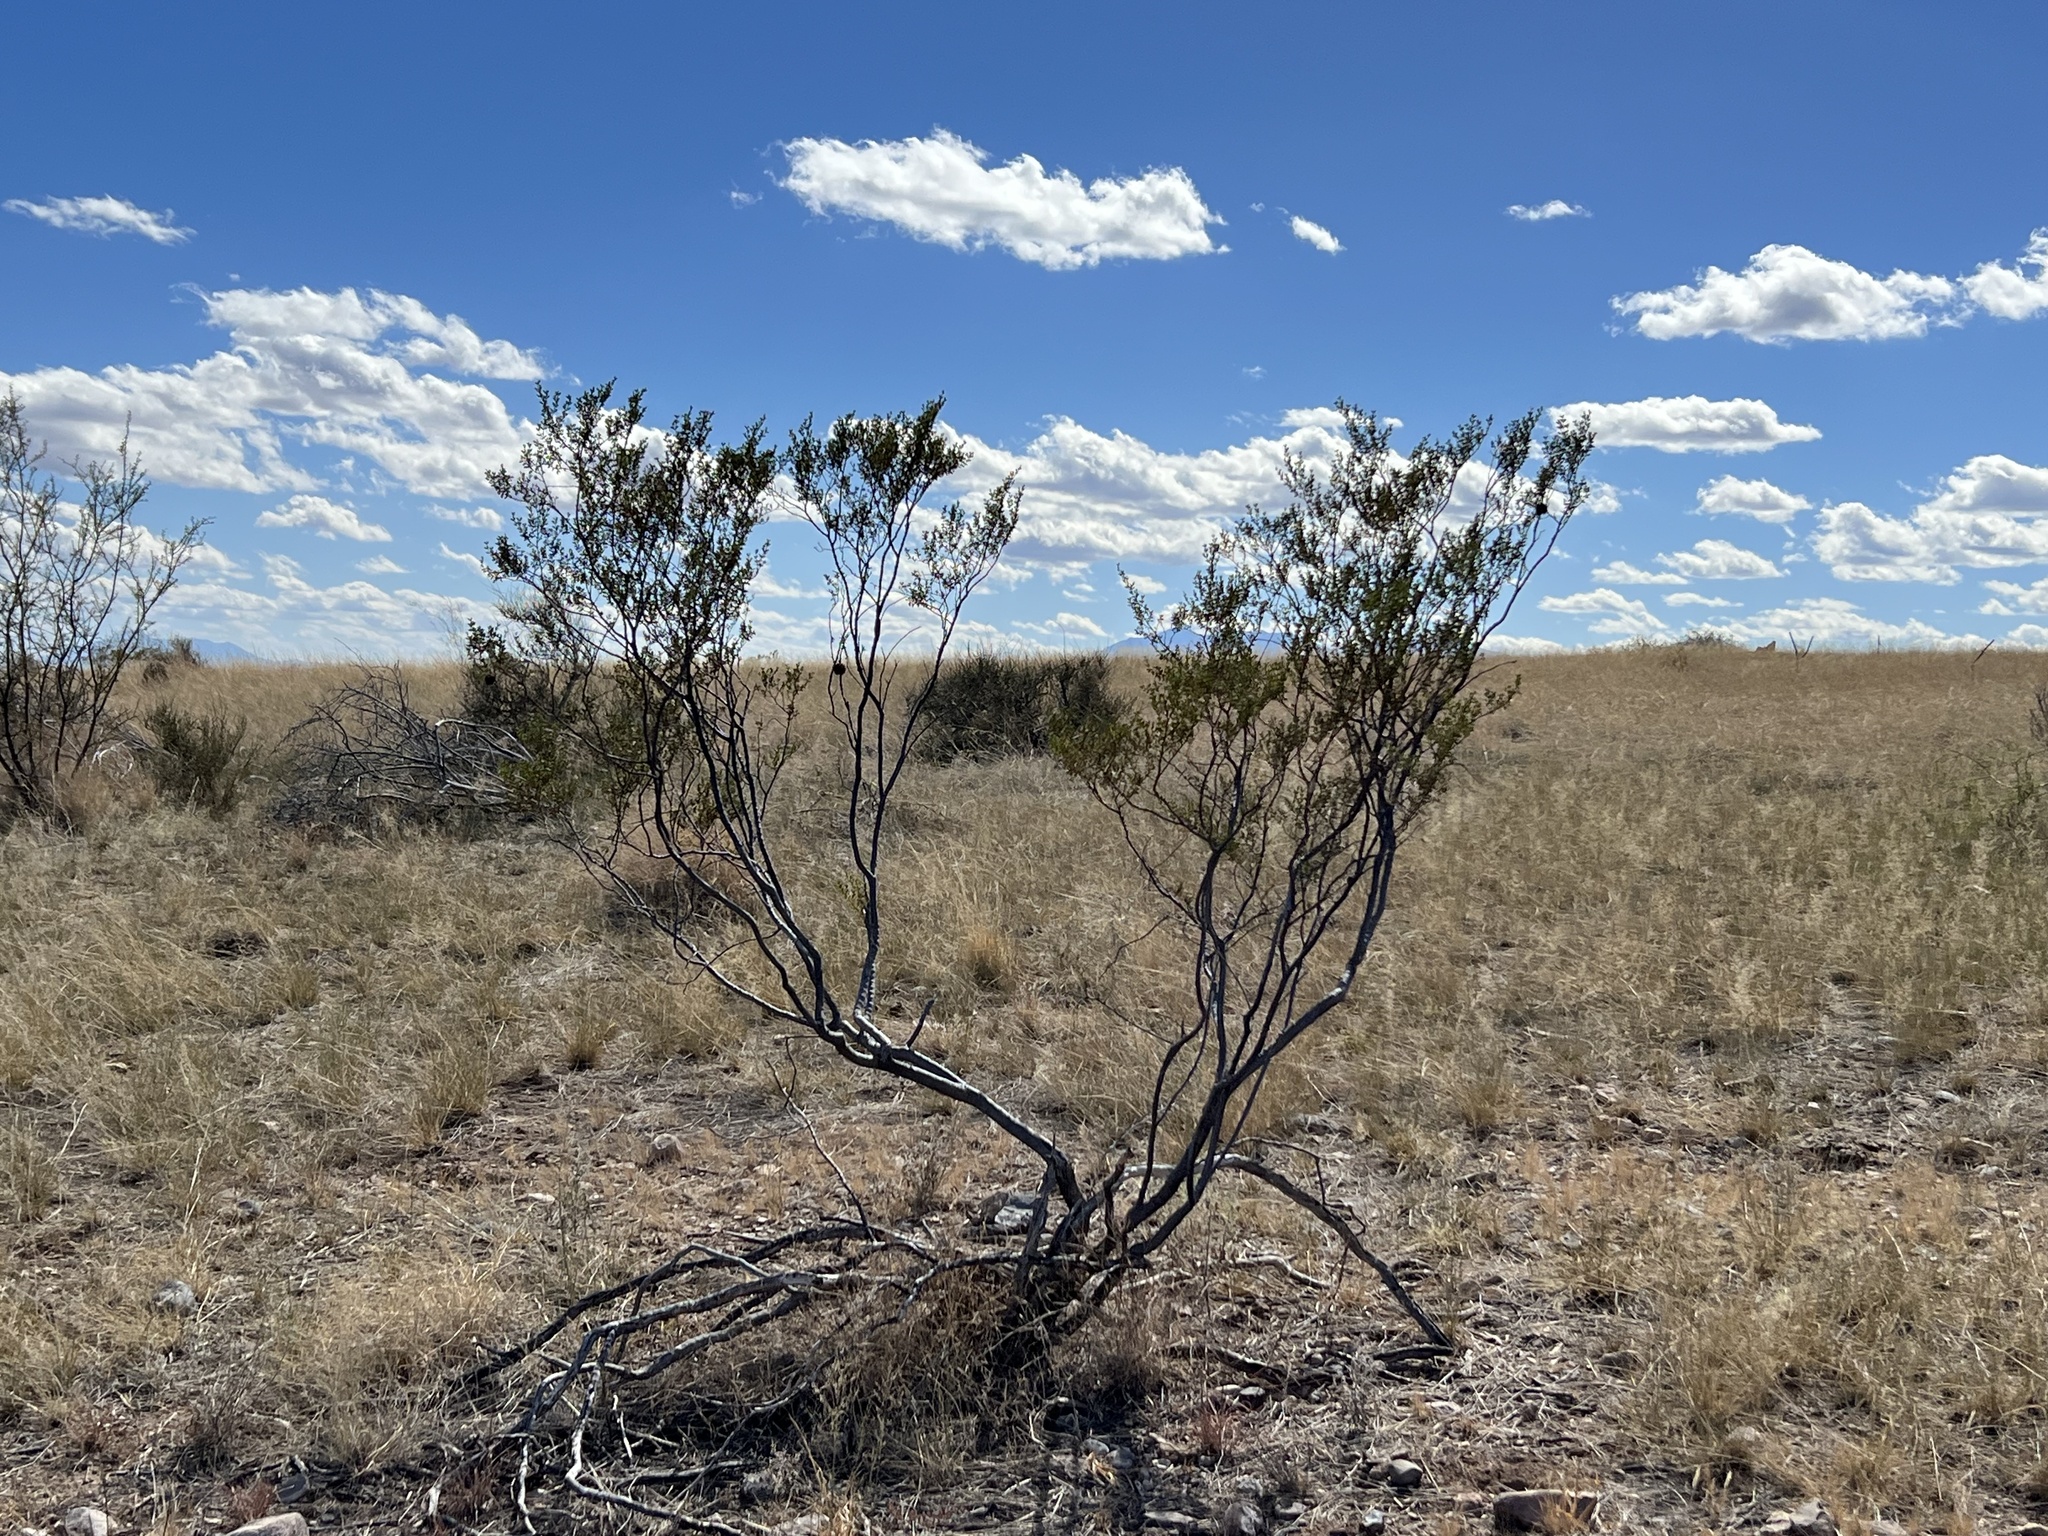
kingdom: Plantae
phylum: Tracheophyta
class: Magnoliopsida
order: Zygophyllales
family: Zygophyllaceae
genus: Larrea
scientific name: Larrea tridentata
